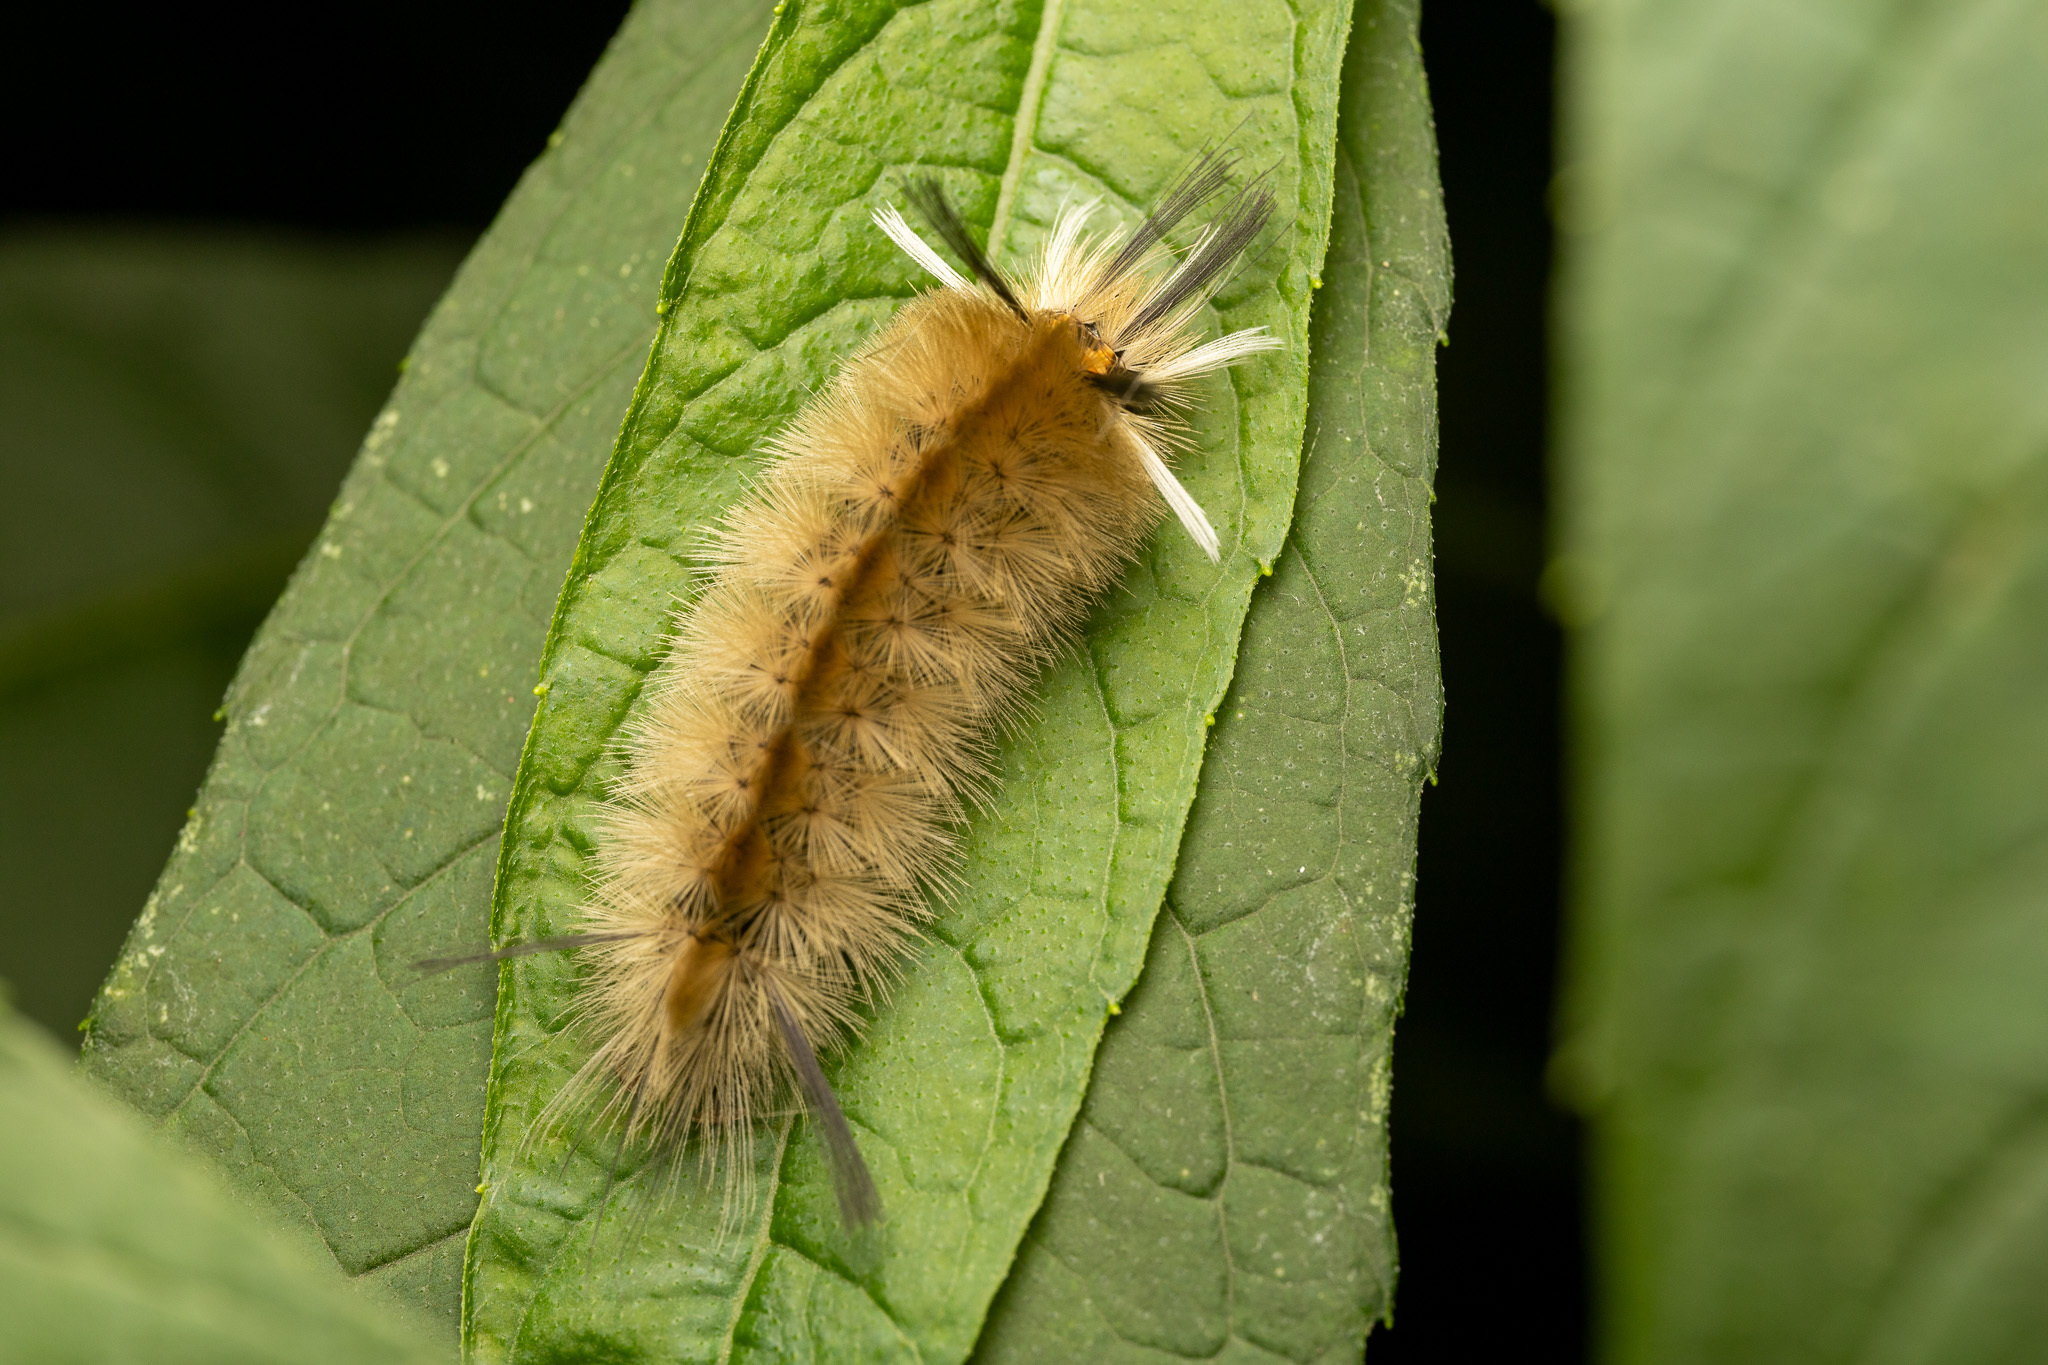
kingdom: Animalia
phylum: Arthropoda
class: Insecta
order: Lepidoptera
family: Erebidae
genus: Halysidota
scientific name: Halysidota tessellaris
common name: Banded tussock moth
